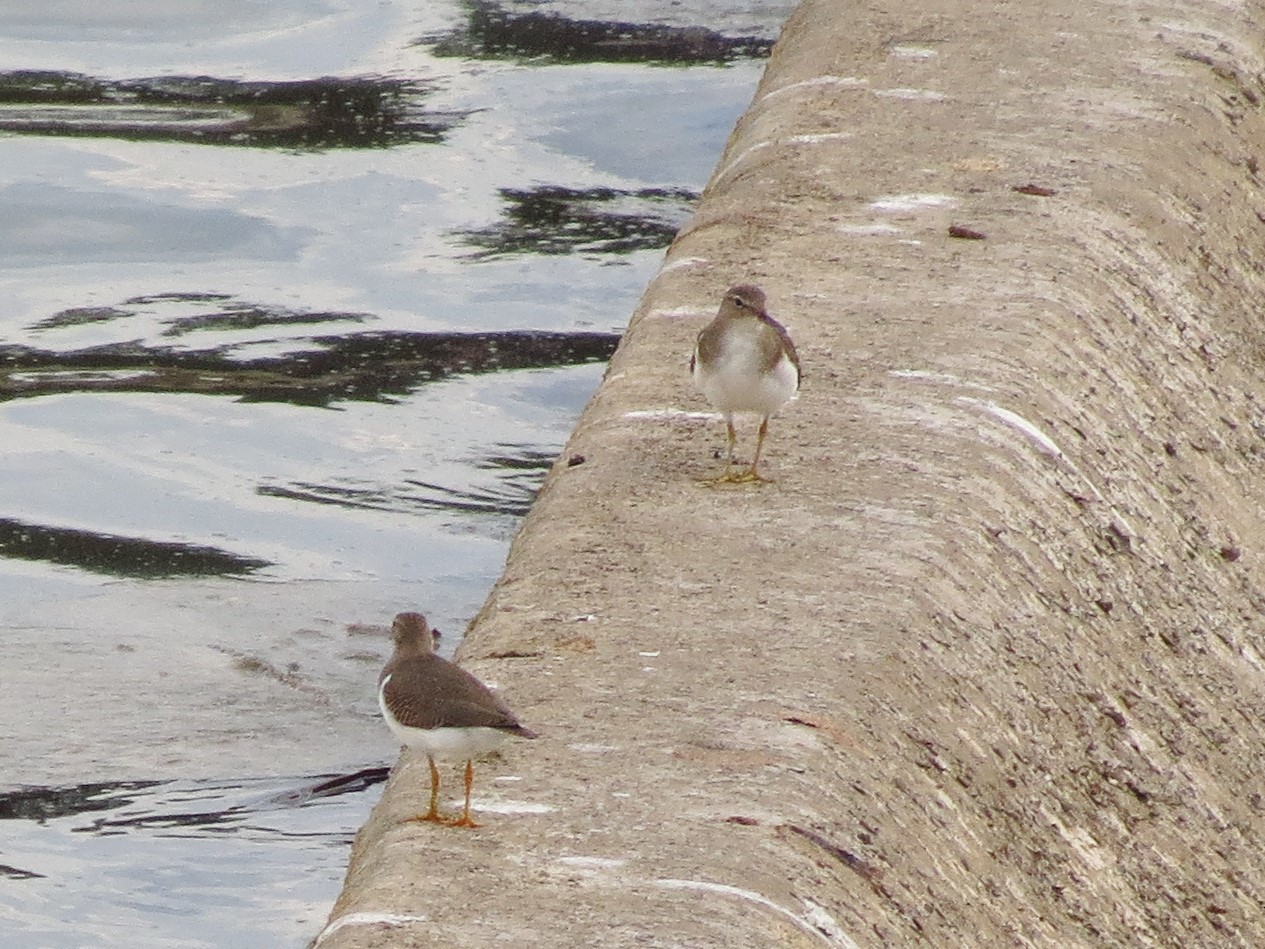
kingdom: Animalia
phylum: Chordata
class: Aves
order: Charadriiformes
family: Scolopacidae
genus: Actitis
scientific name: Actitis macularius
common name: Spotted sandpiper
